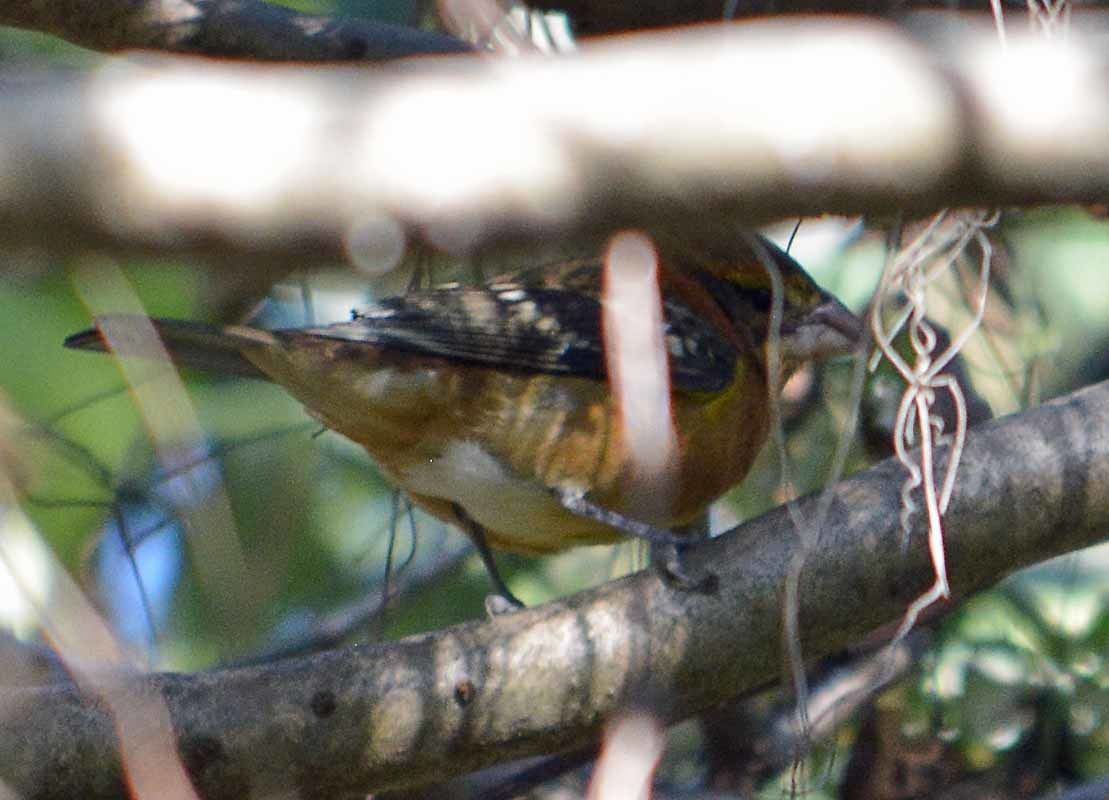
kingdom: Animalia
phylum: Chordata
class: Aves
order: Passeriformes
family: Cardinalidae
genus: Pheucticus
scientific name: Pheucticus melanocephalus
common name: Black-headed grosbeak
